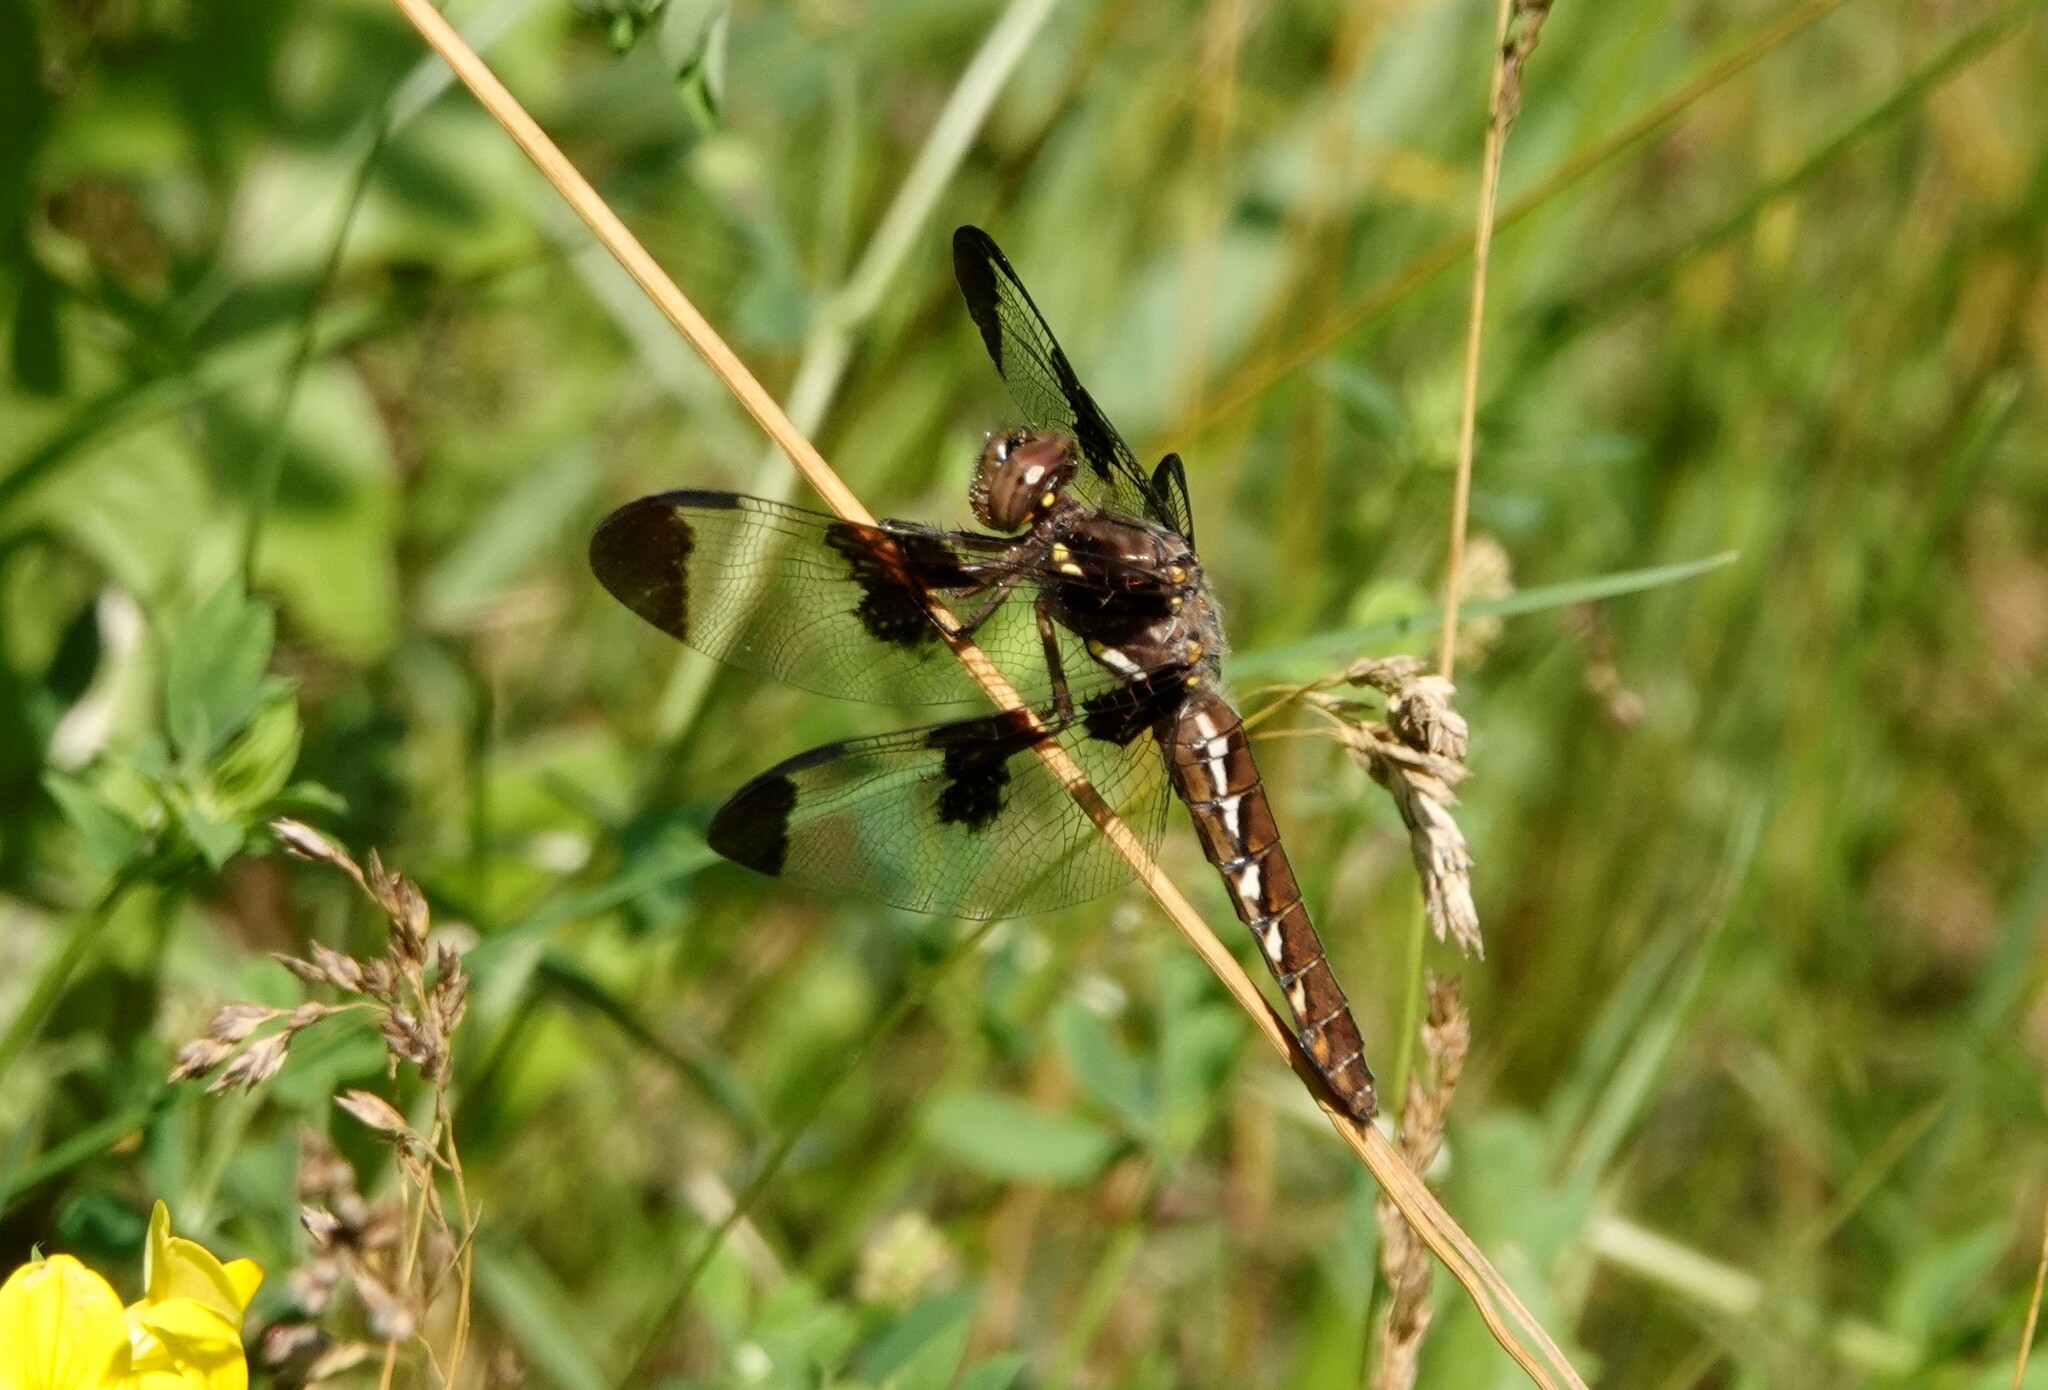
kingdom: Animalia
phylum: Arthropoda
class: Insecta
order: Odonata
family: Libellulidae
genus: Plathemis
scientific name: Plathemis lydia
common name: Common whitetail
